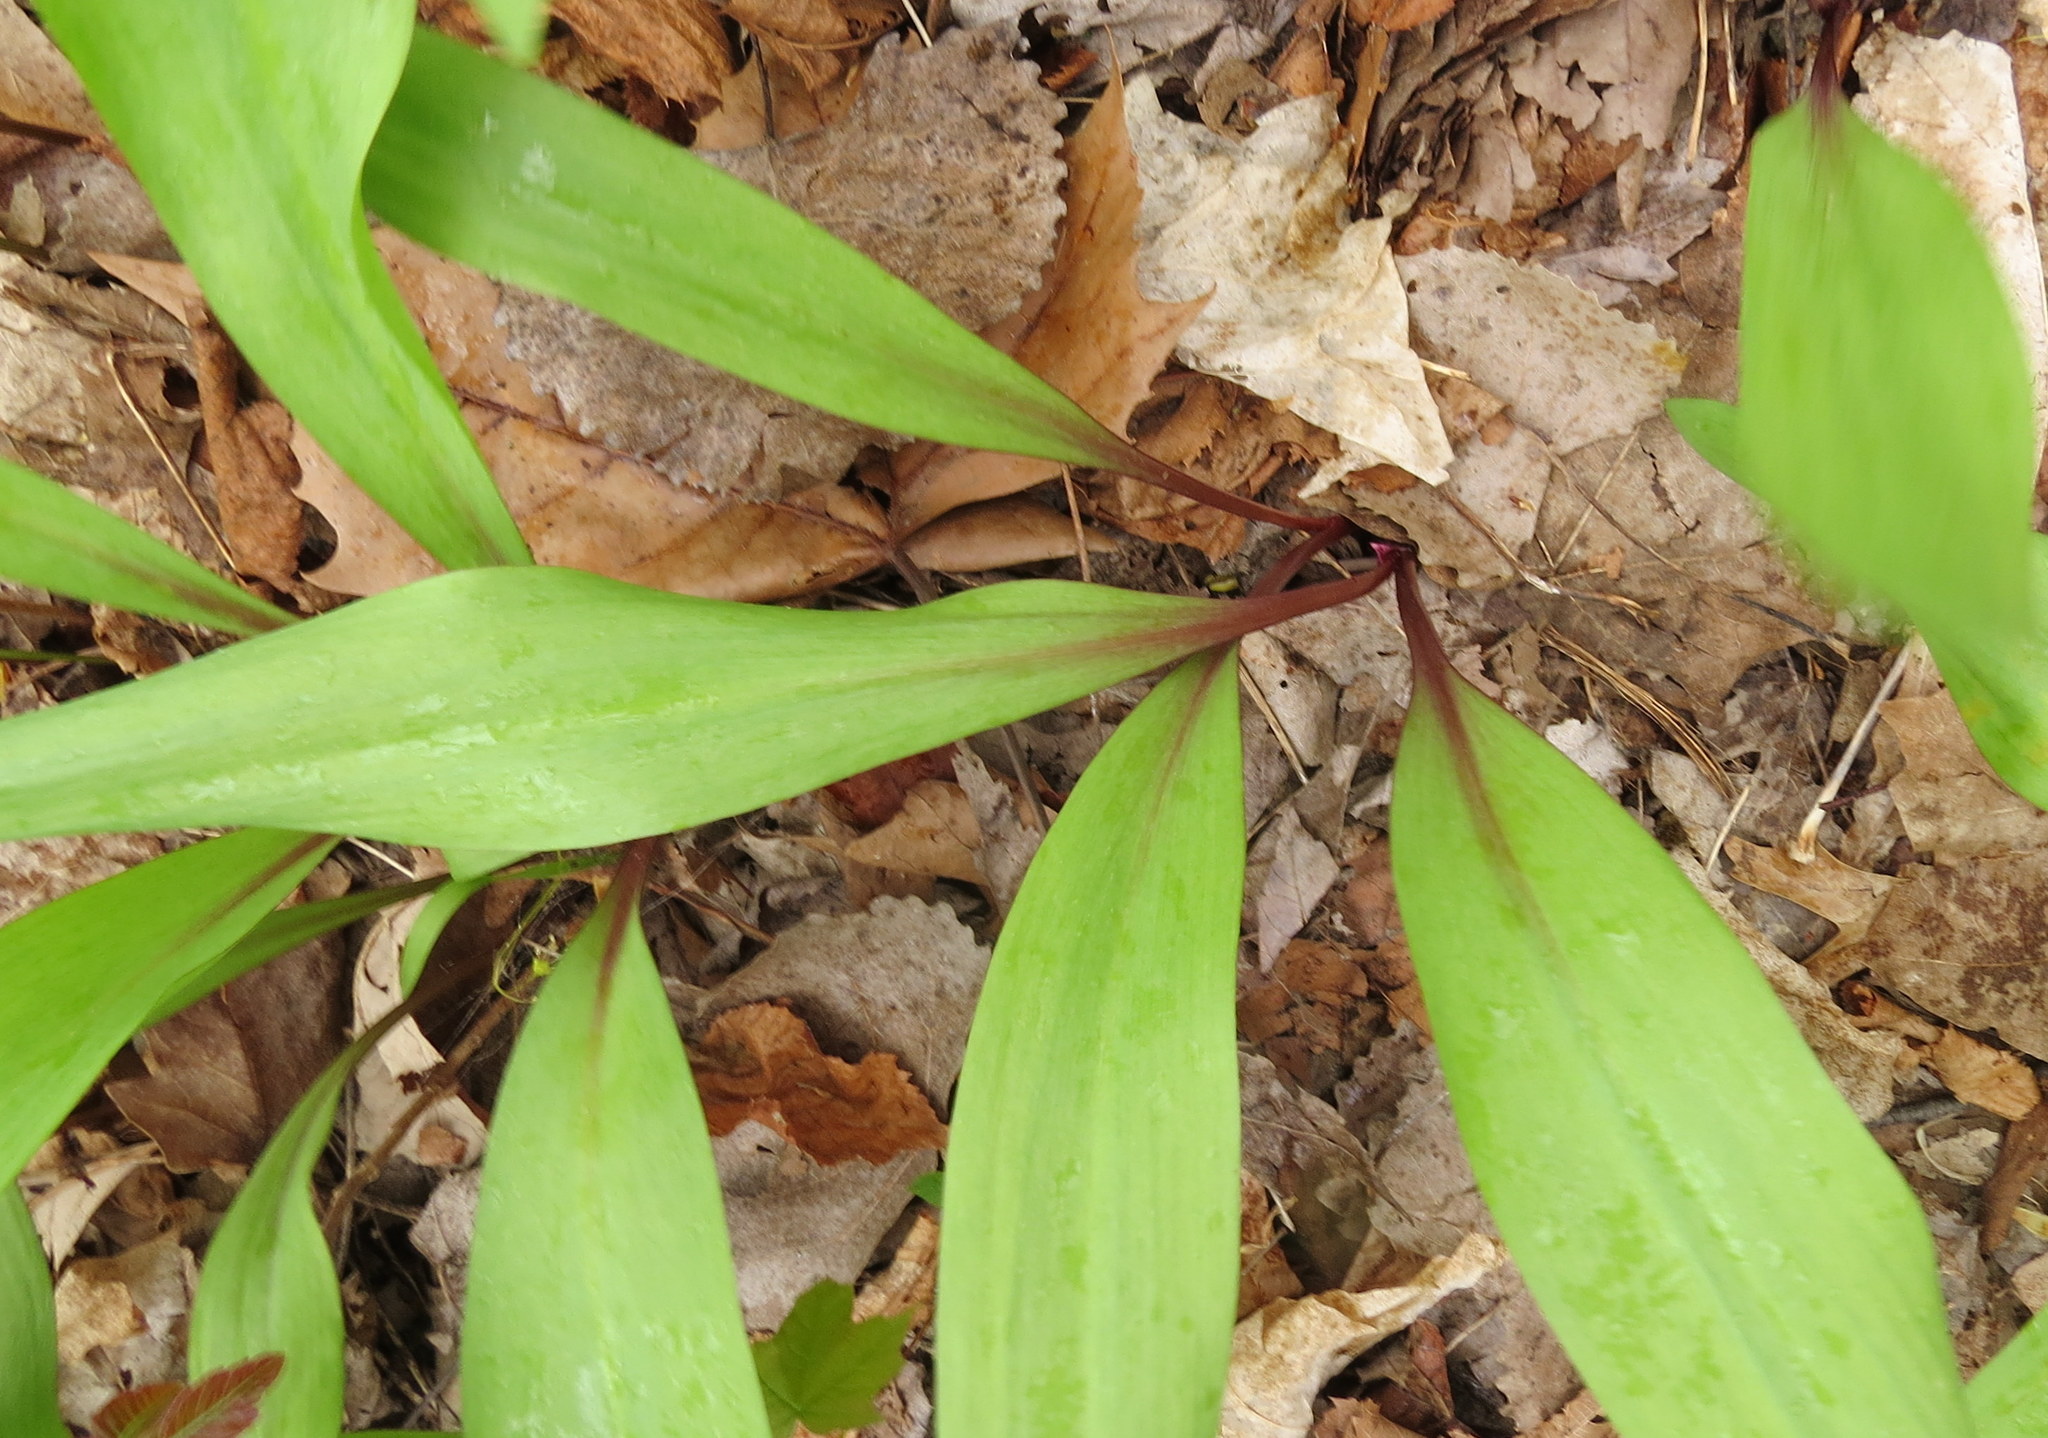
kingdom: Plantae
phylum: Tracheophyta
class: Liliopsida
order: Asparagales
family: Amaryllidaceae
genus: Allium
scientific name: Allium tricoccum
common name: Ramp
